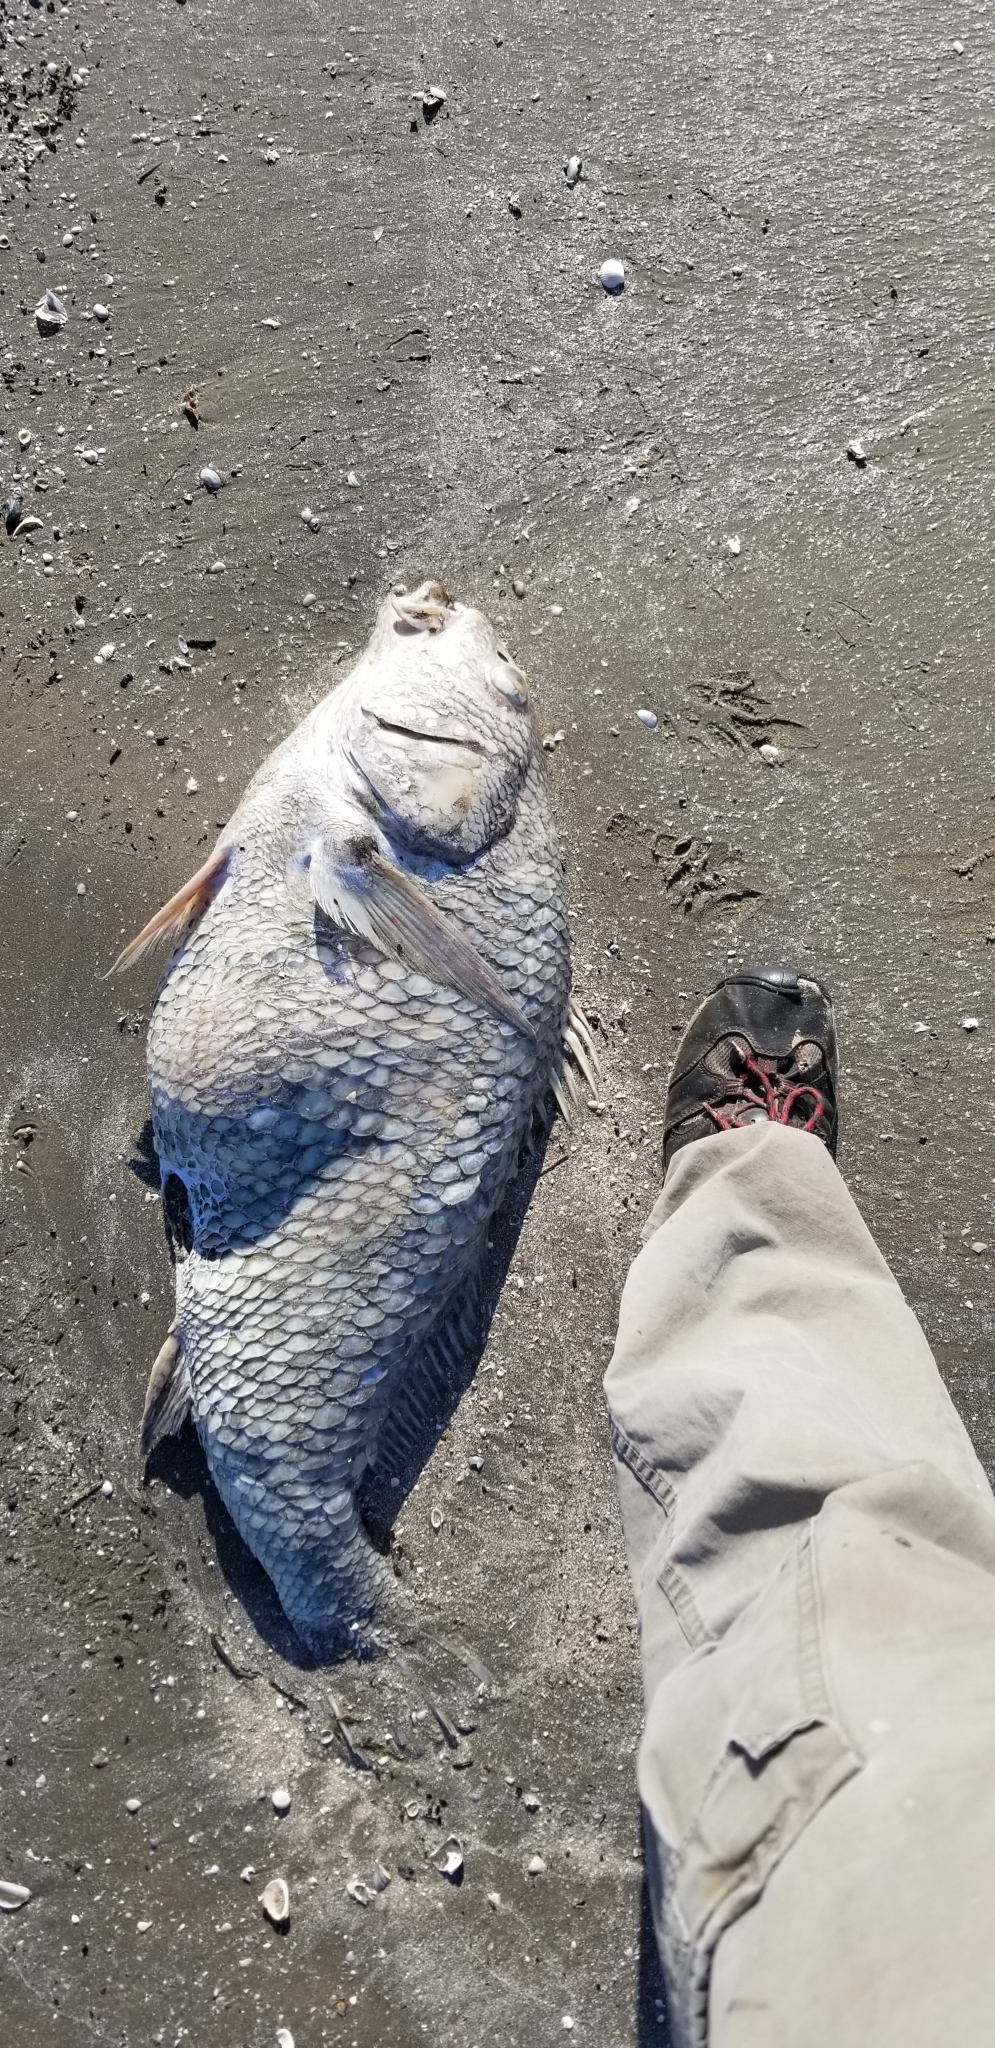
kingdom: Animalia
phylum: Chordata
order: Perciformes
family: Sciaenidae
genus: Pogonias
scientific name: Pogonias cromis
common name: Black drum
